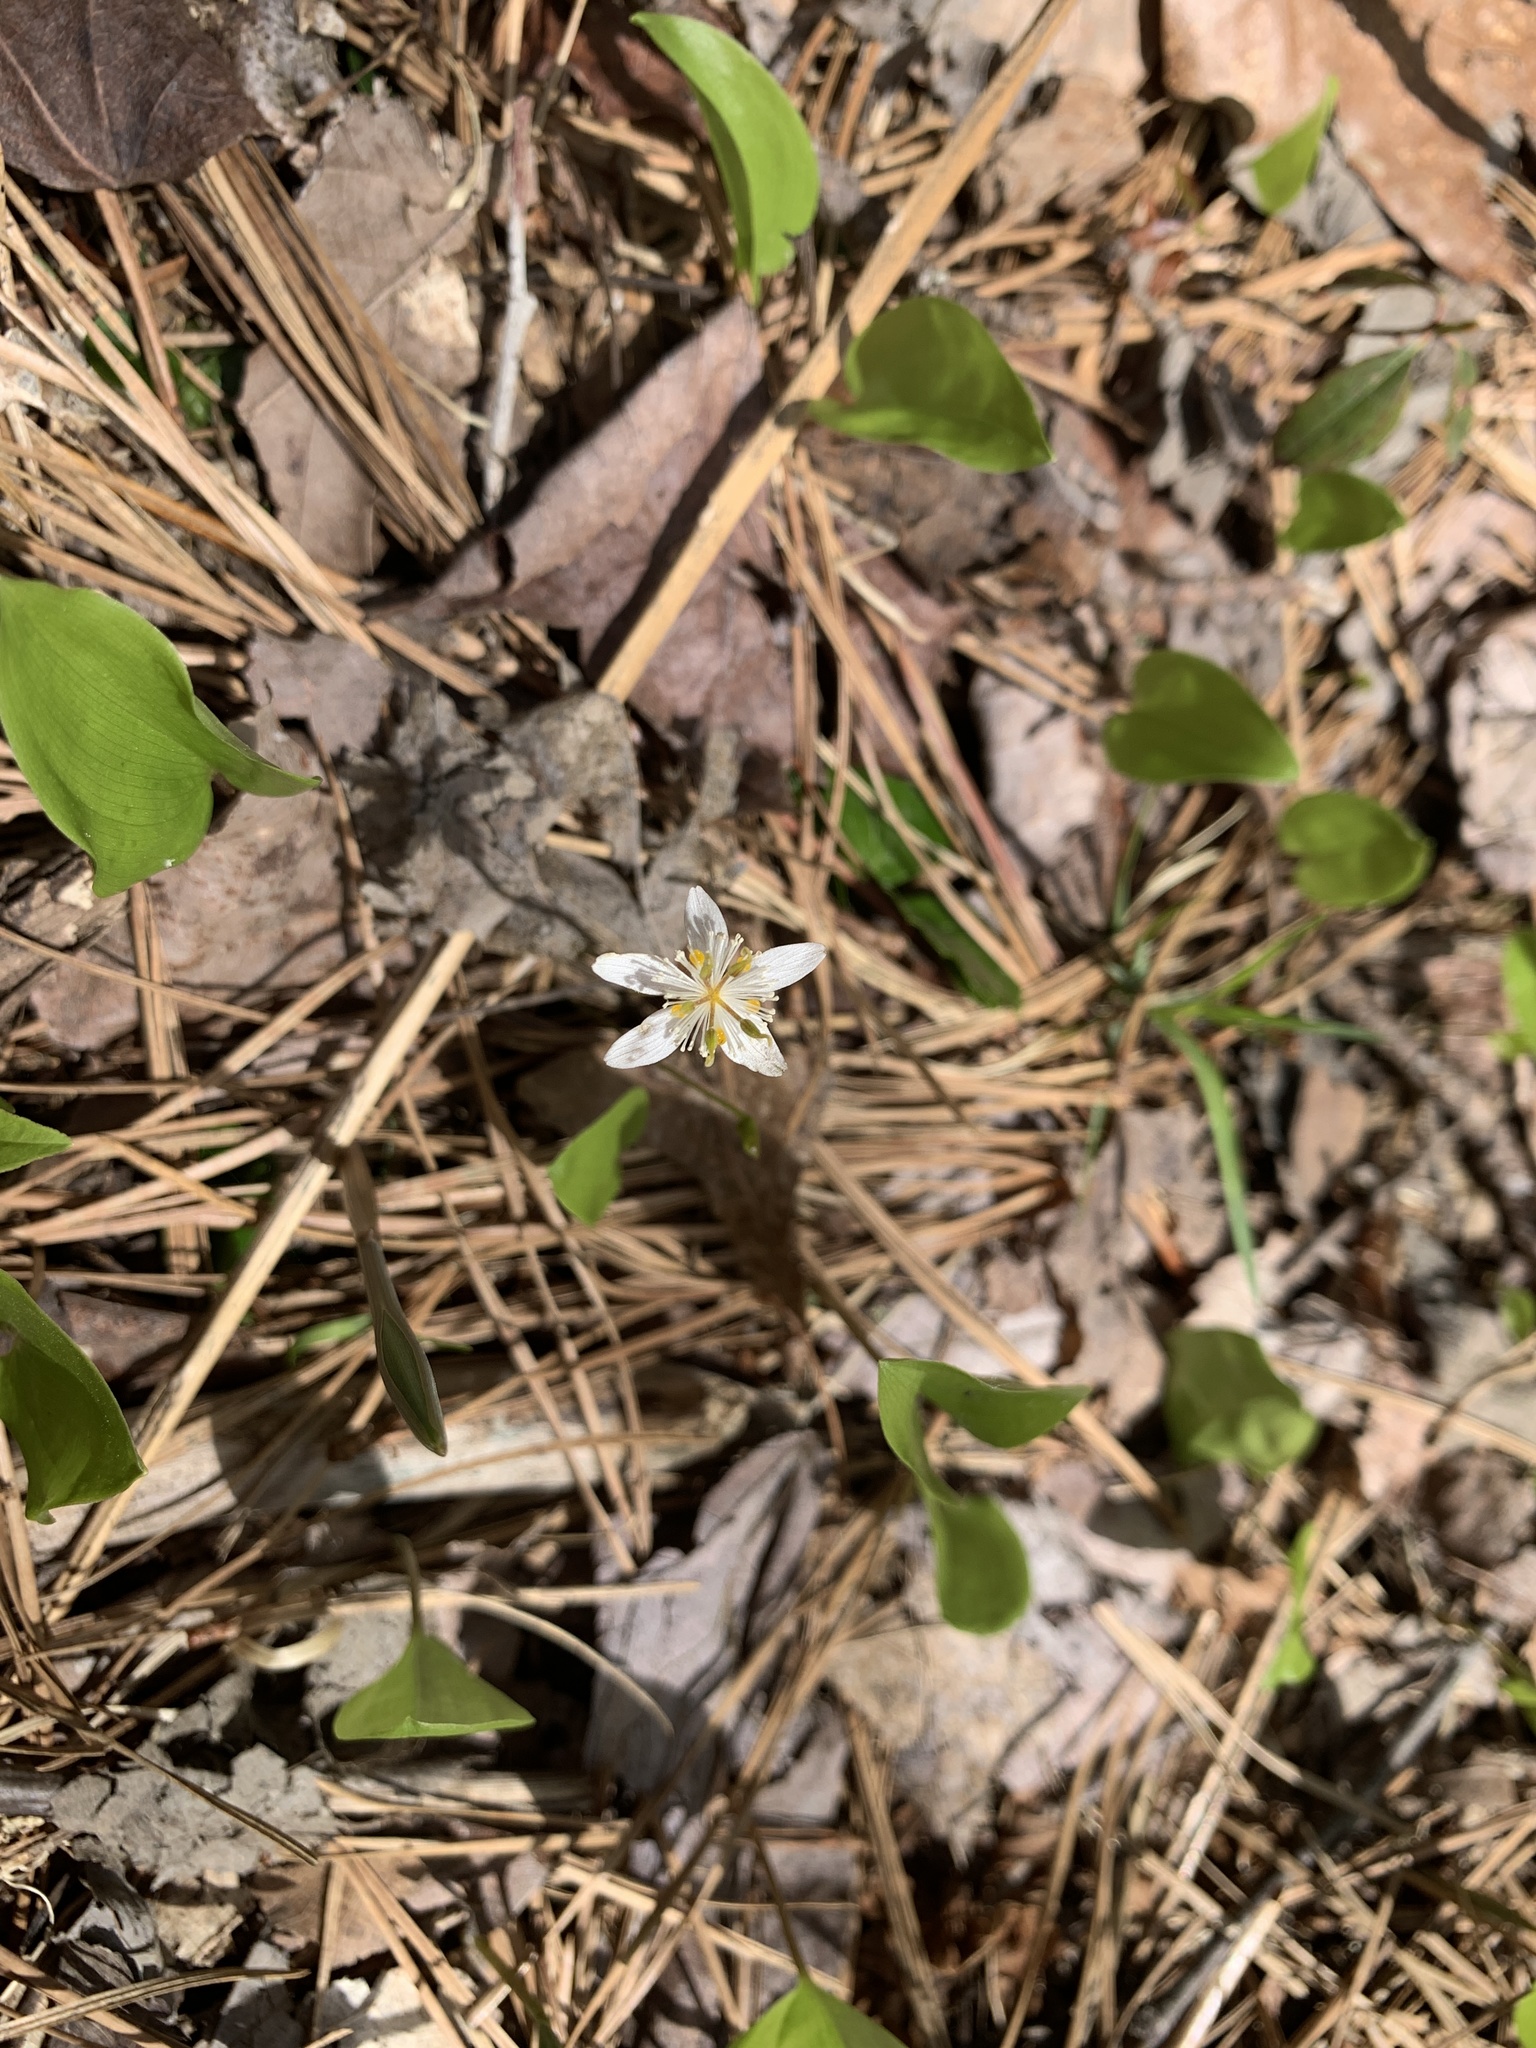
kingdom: Plantae
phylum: Tracheophyta
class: Magnoliopsida
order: Ranunculales
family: Ranunculaceae
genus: Coptis
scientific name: Coptis trifolia
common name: Canker-root
